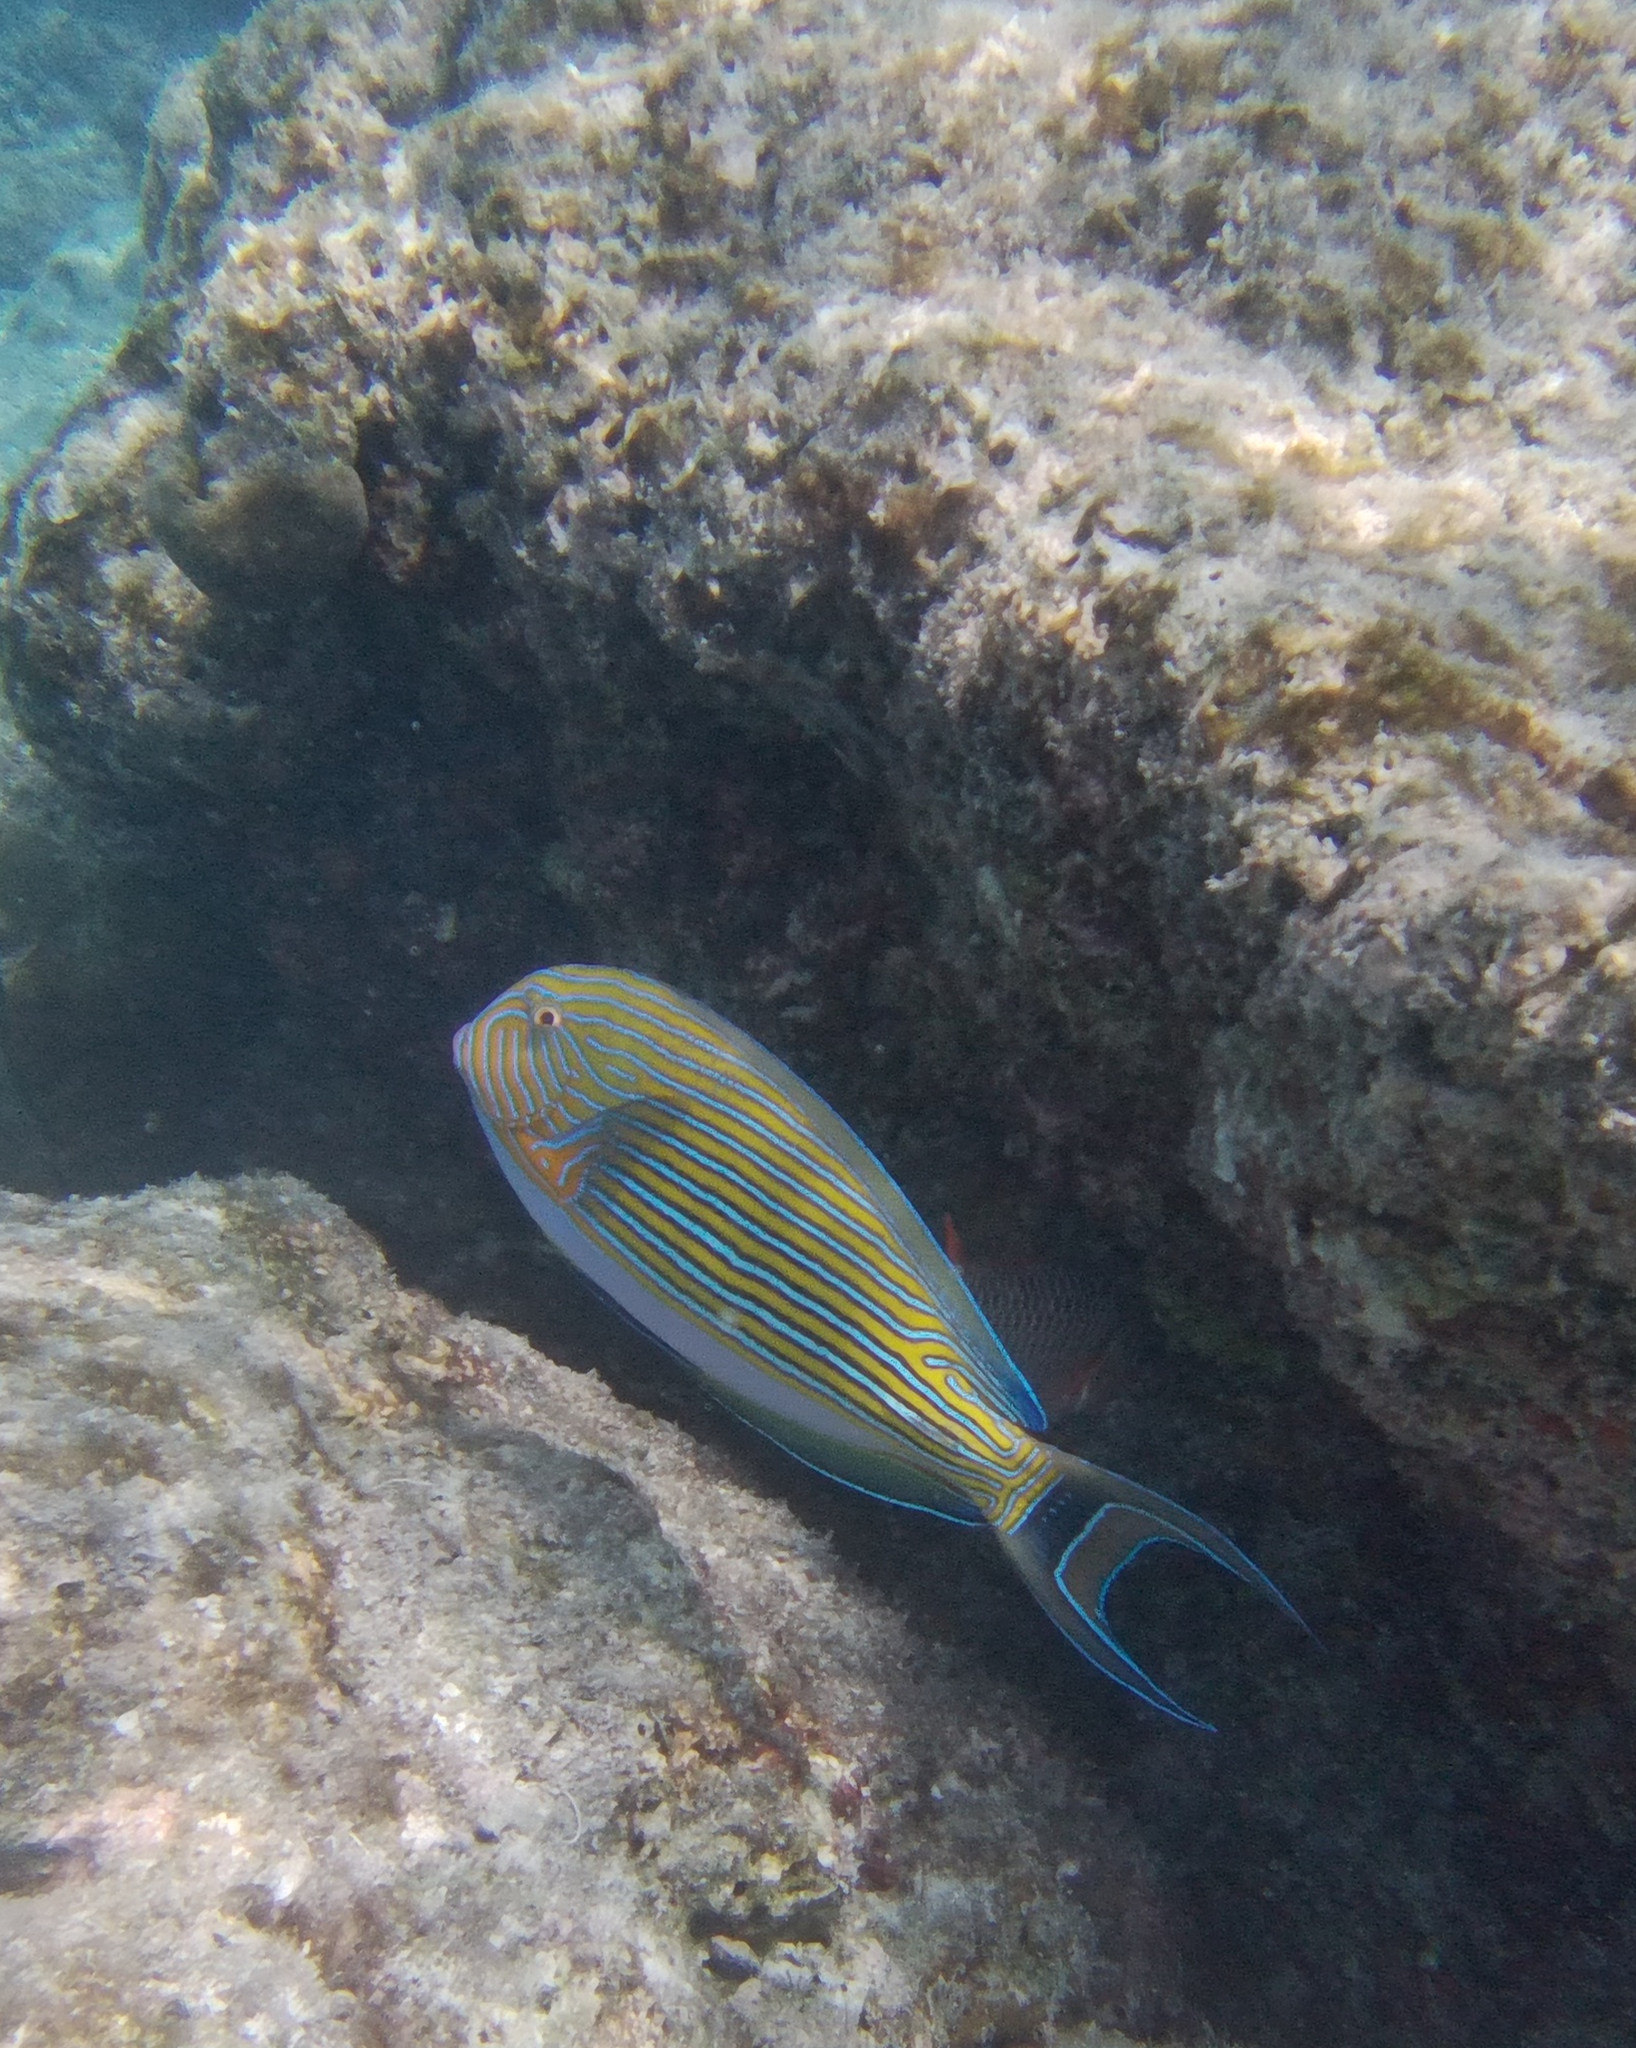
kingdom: Animalia
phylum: Chordata
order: Perciformes
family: Acanthuridae
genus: Acanthurus
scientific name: Acanthurus lineatus
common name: Striped surgeonfish
